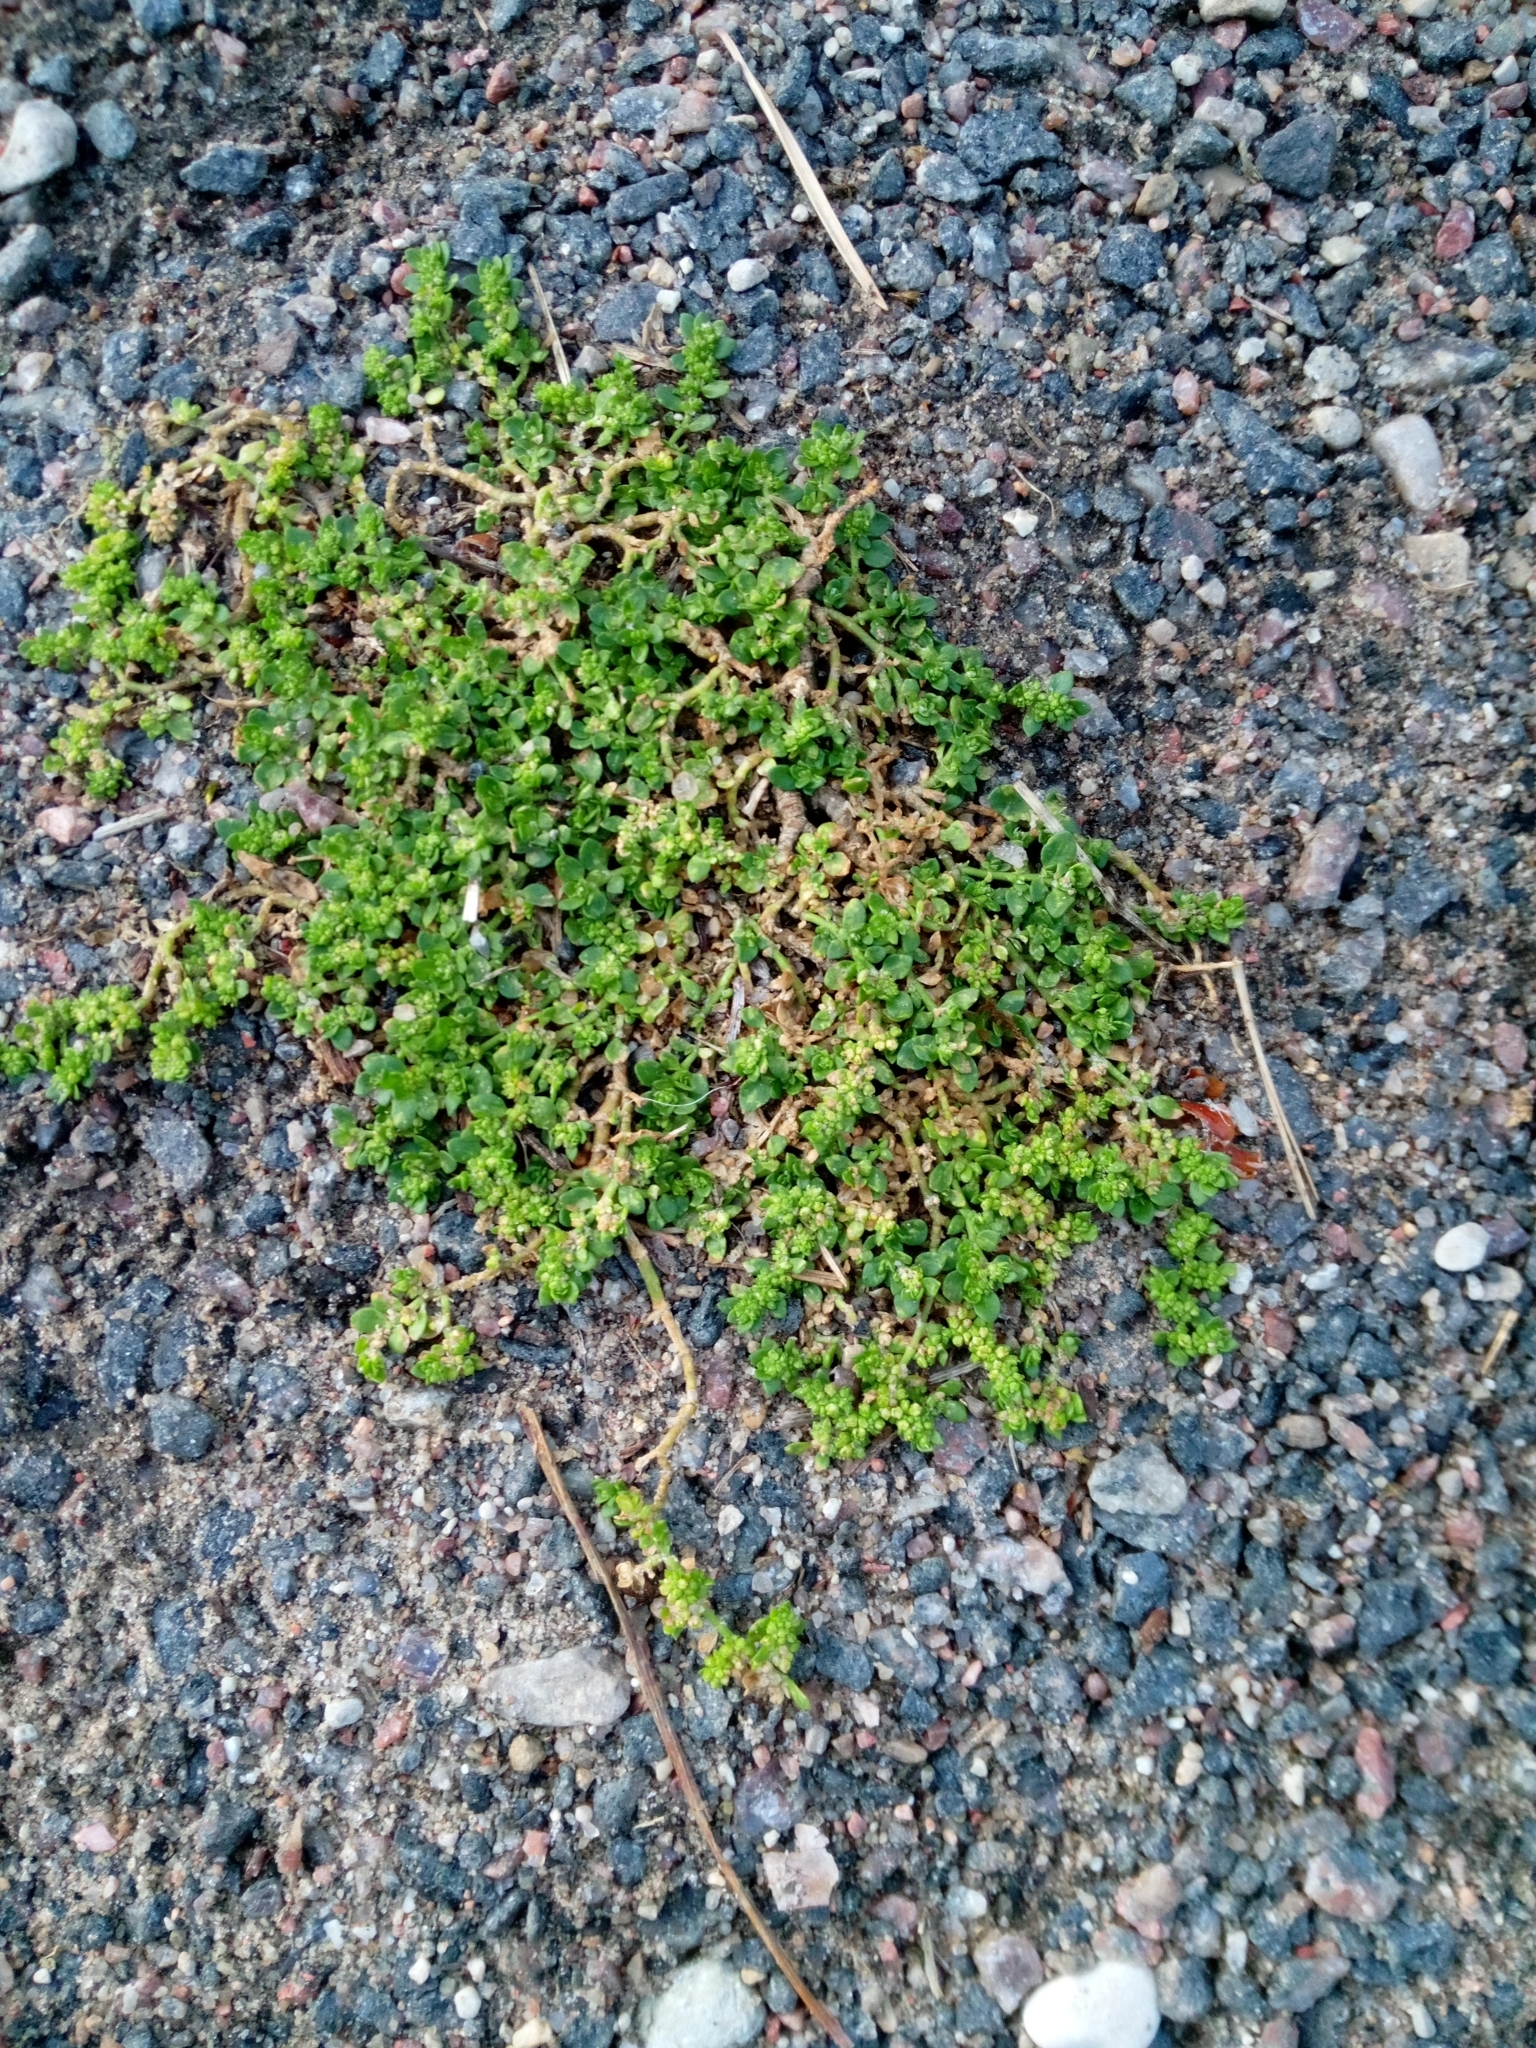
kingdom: Plantae
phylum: Tracheophyta
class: Magnoliopsida
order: Caryophyllales
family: Caryophyllaceae
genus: Herniaria
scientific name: Herniaria glabra
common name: Smooth rupturewort
